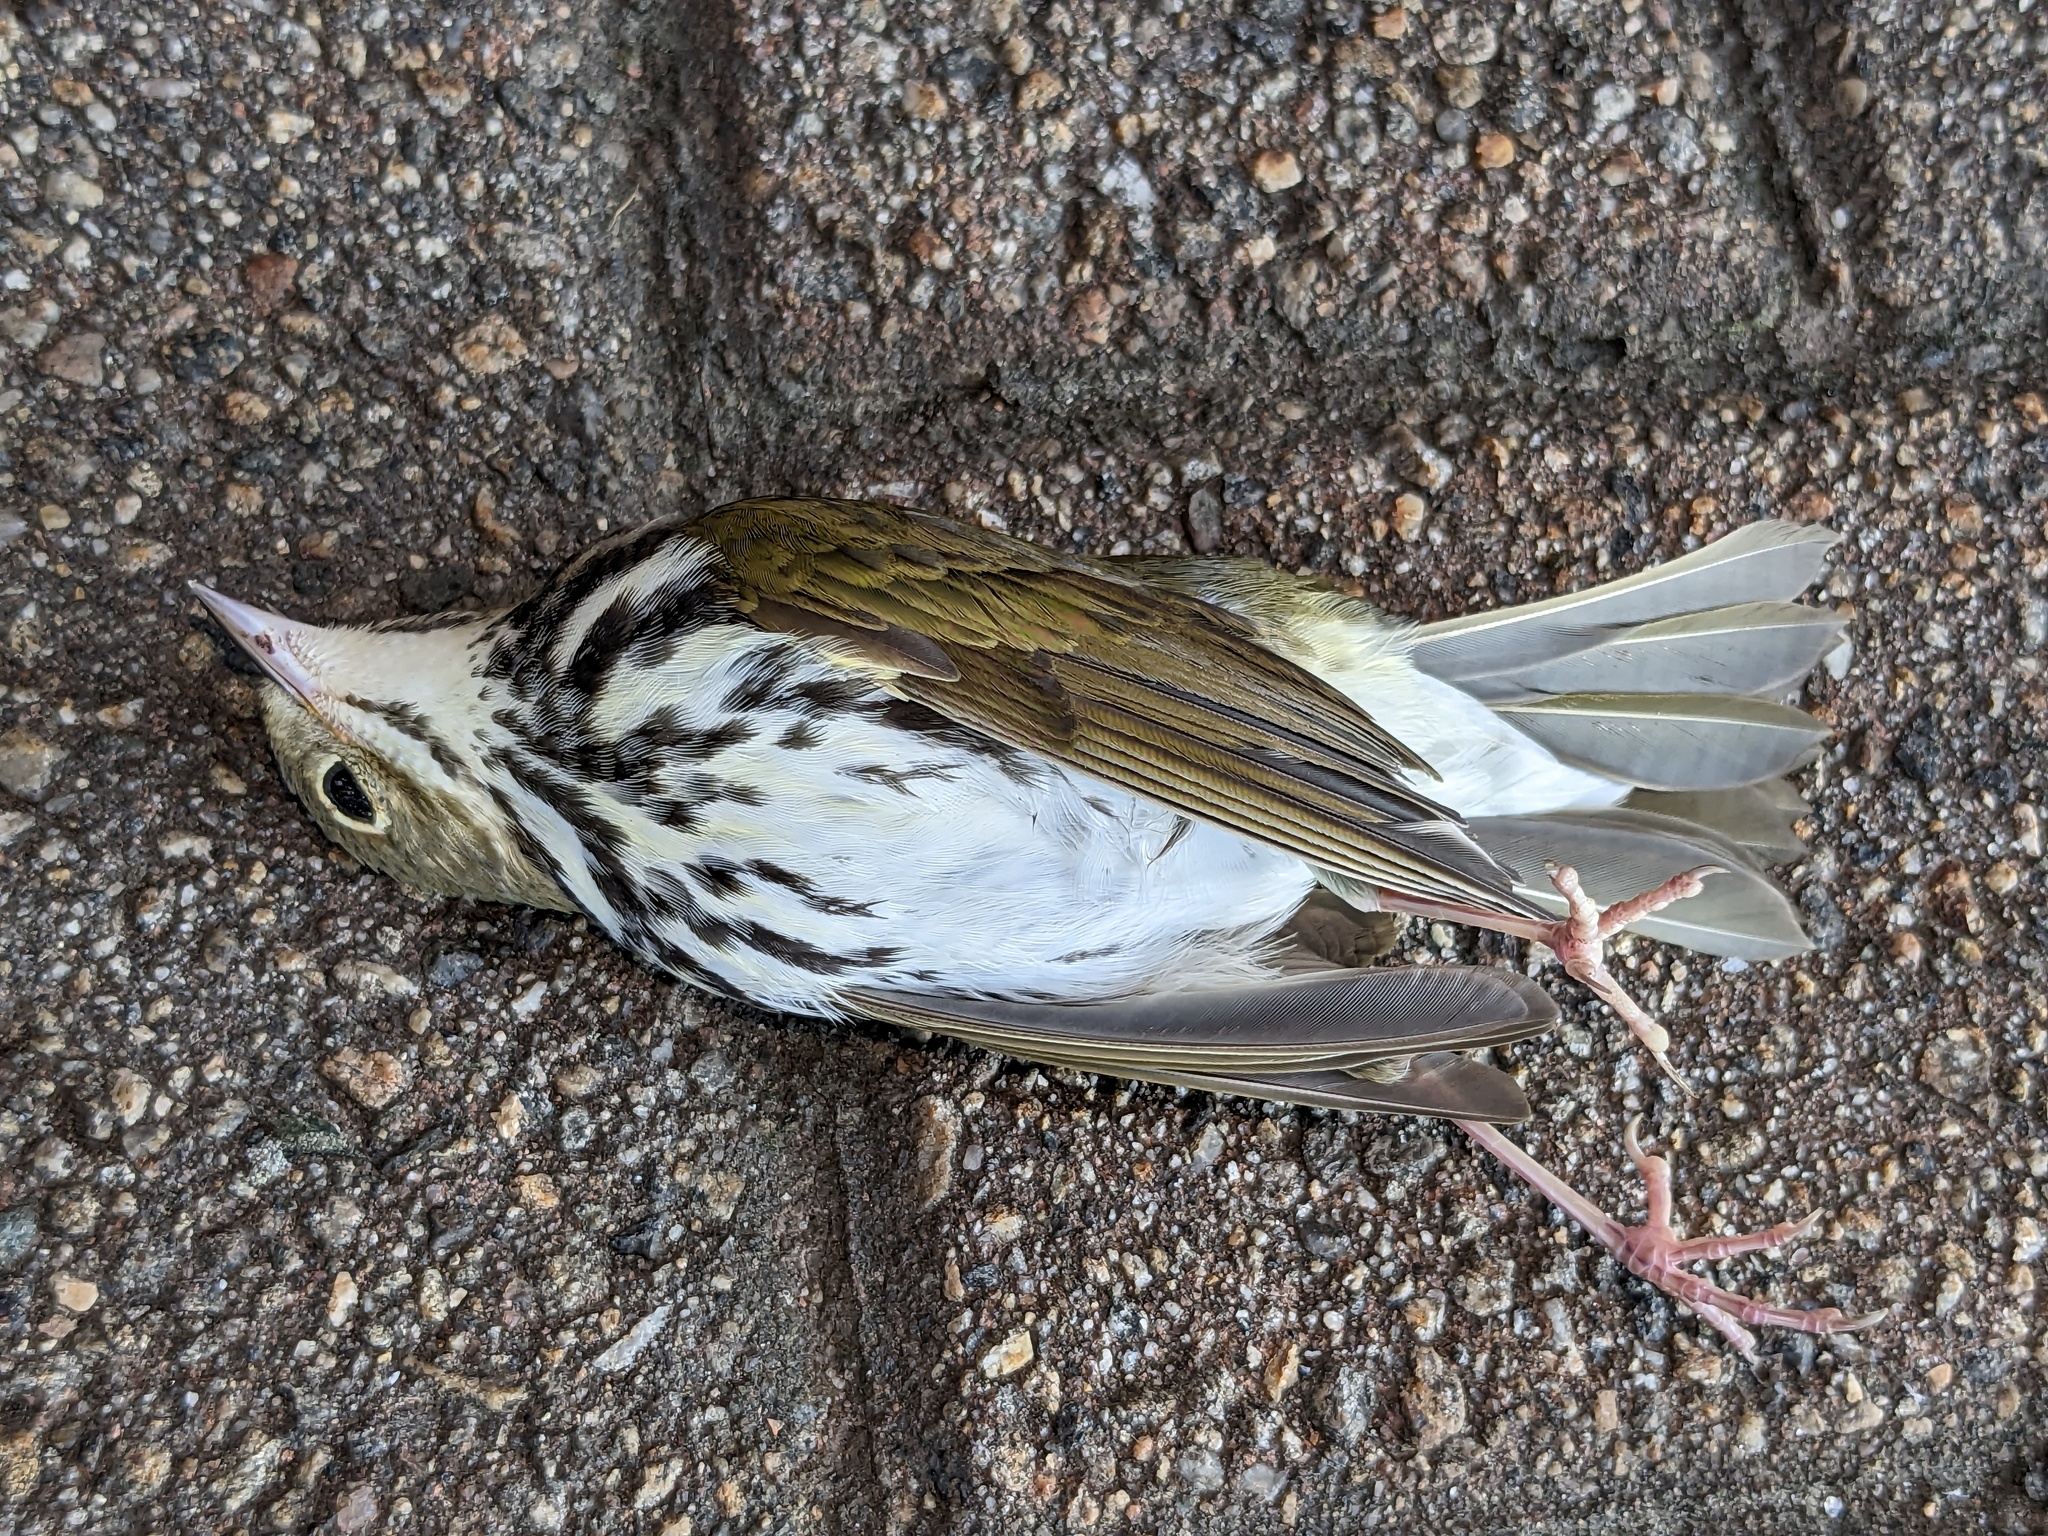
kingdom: Animalia
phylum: Chordata
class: Aves
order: Passeriformes
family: Parulidae
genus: Seiurus
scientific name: Seiurus aurocapilla
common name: Ovenbird
